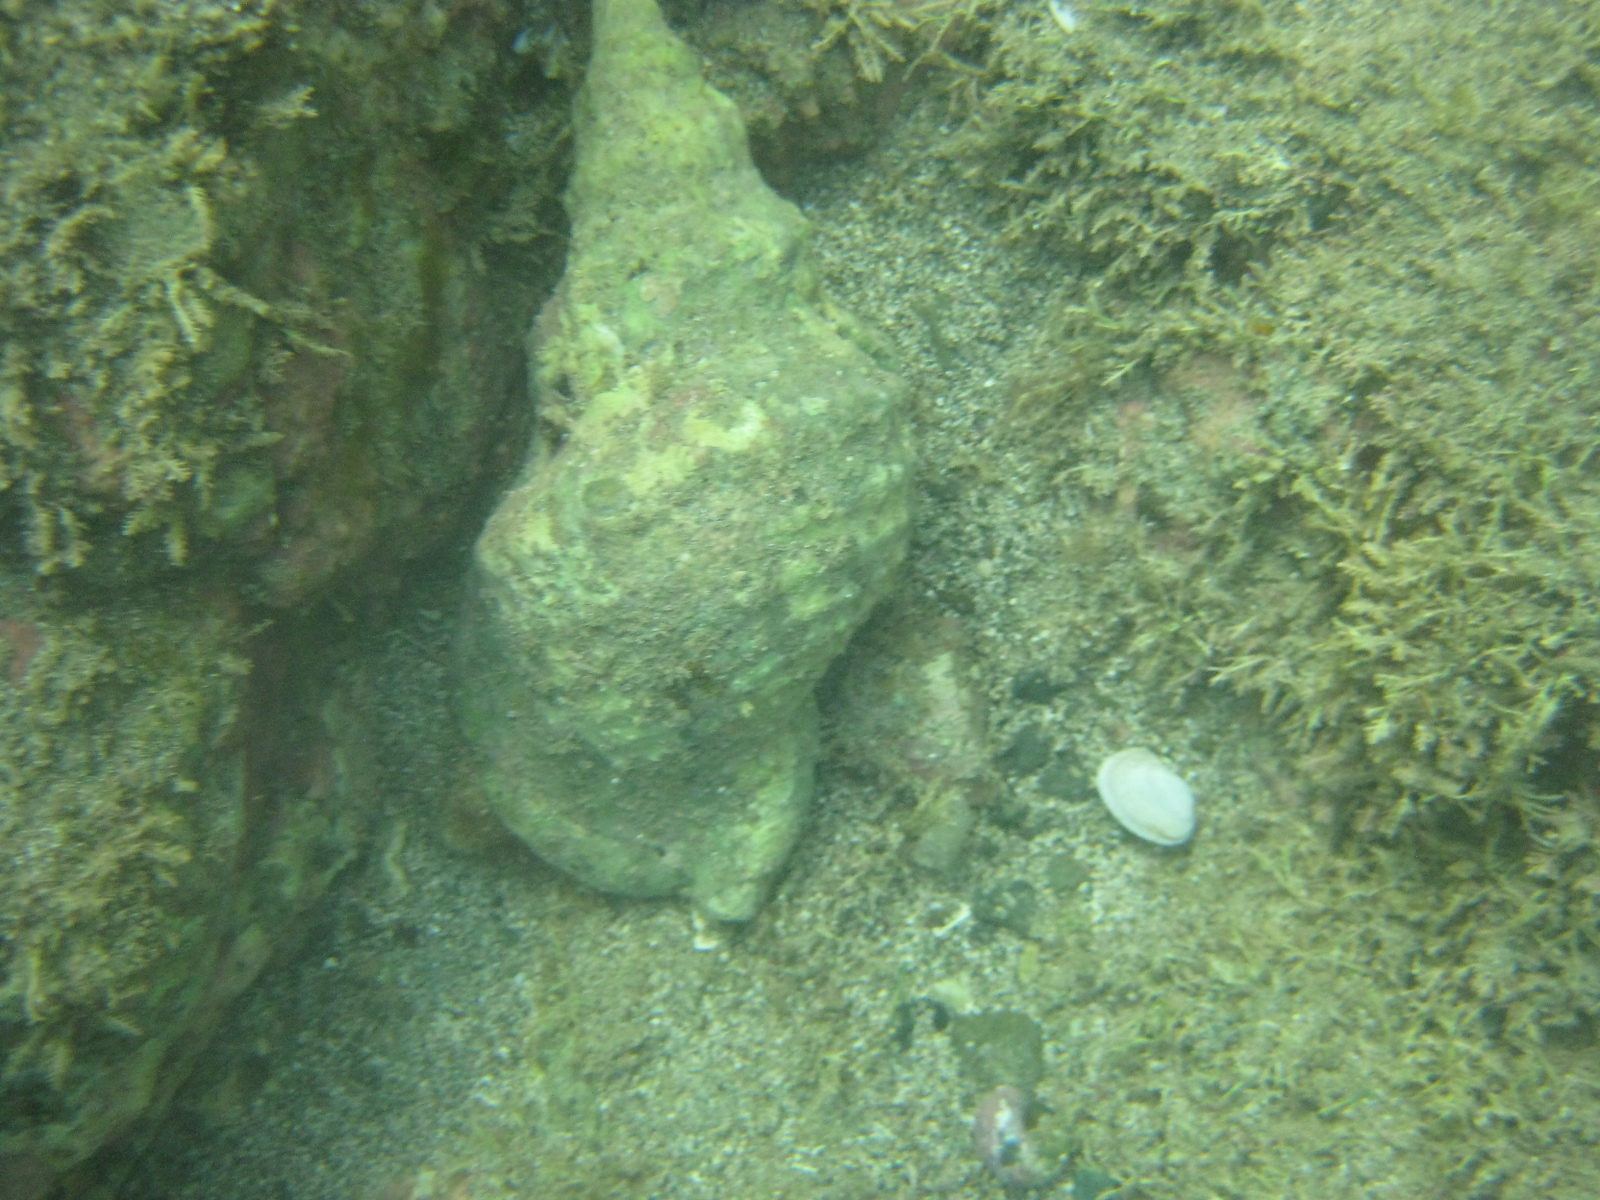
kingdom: Animalia
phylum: Mollusca
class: Gastropoda
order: Littorinimorpha
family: Charoniidae
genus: Charonia
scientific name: Charonia lampas
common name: Knobbed triton
